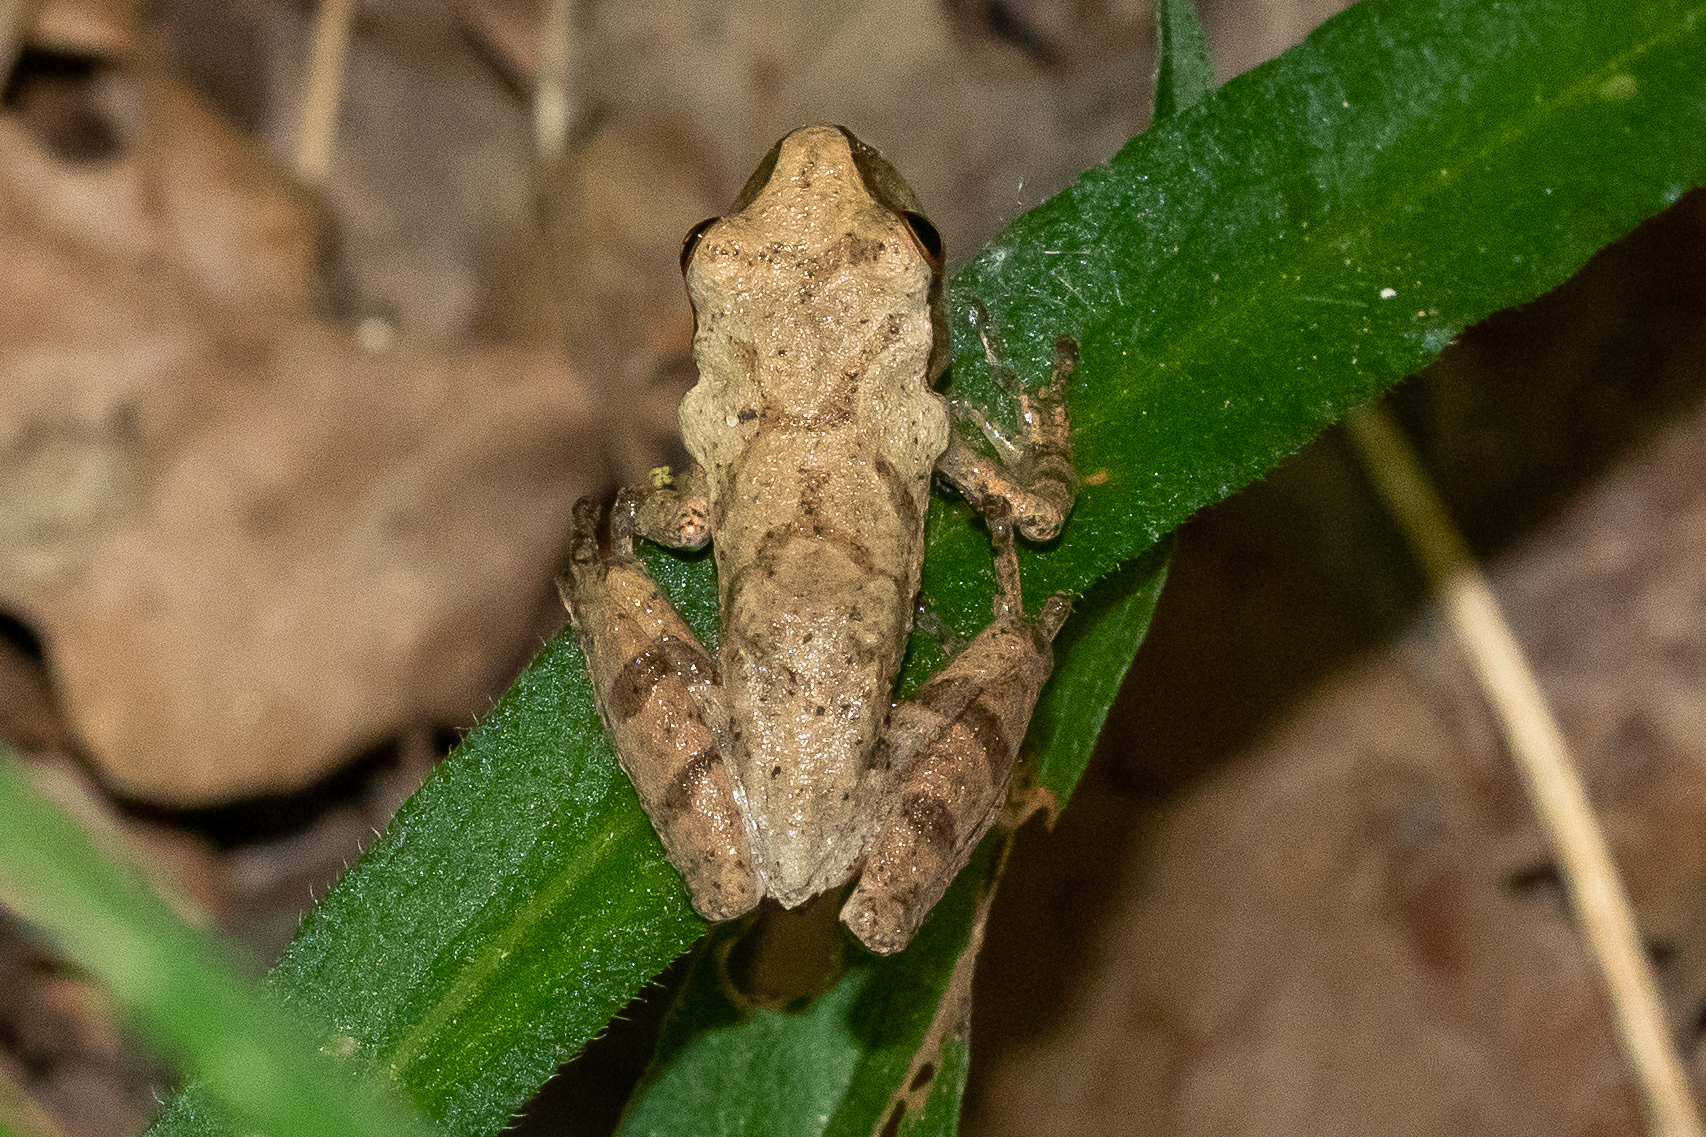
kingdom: Animalia
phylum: Chordata
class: Amphibia
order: Anura
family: Hylidae
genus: Pseudacris
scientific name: Pseudacris crucifer
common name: Spring peeper
